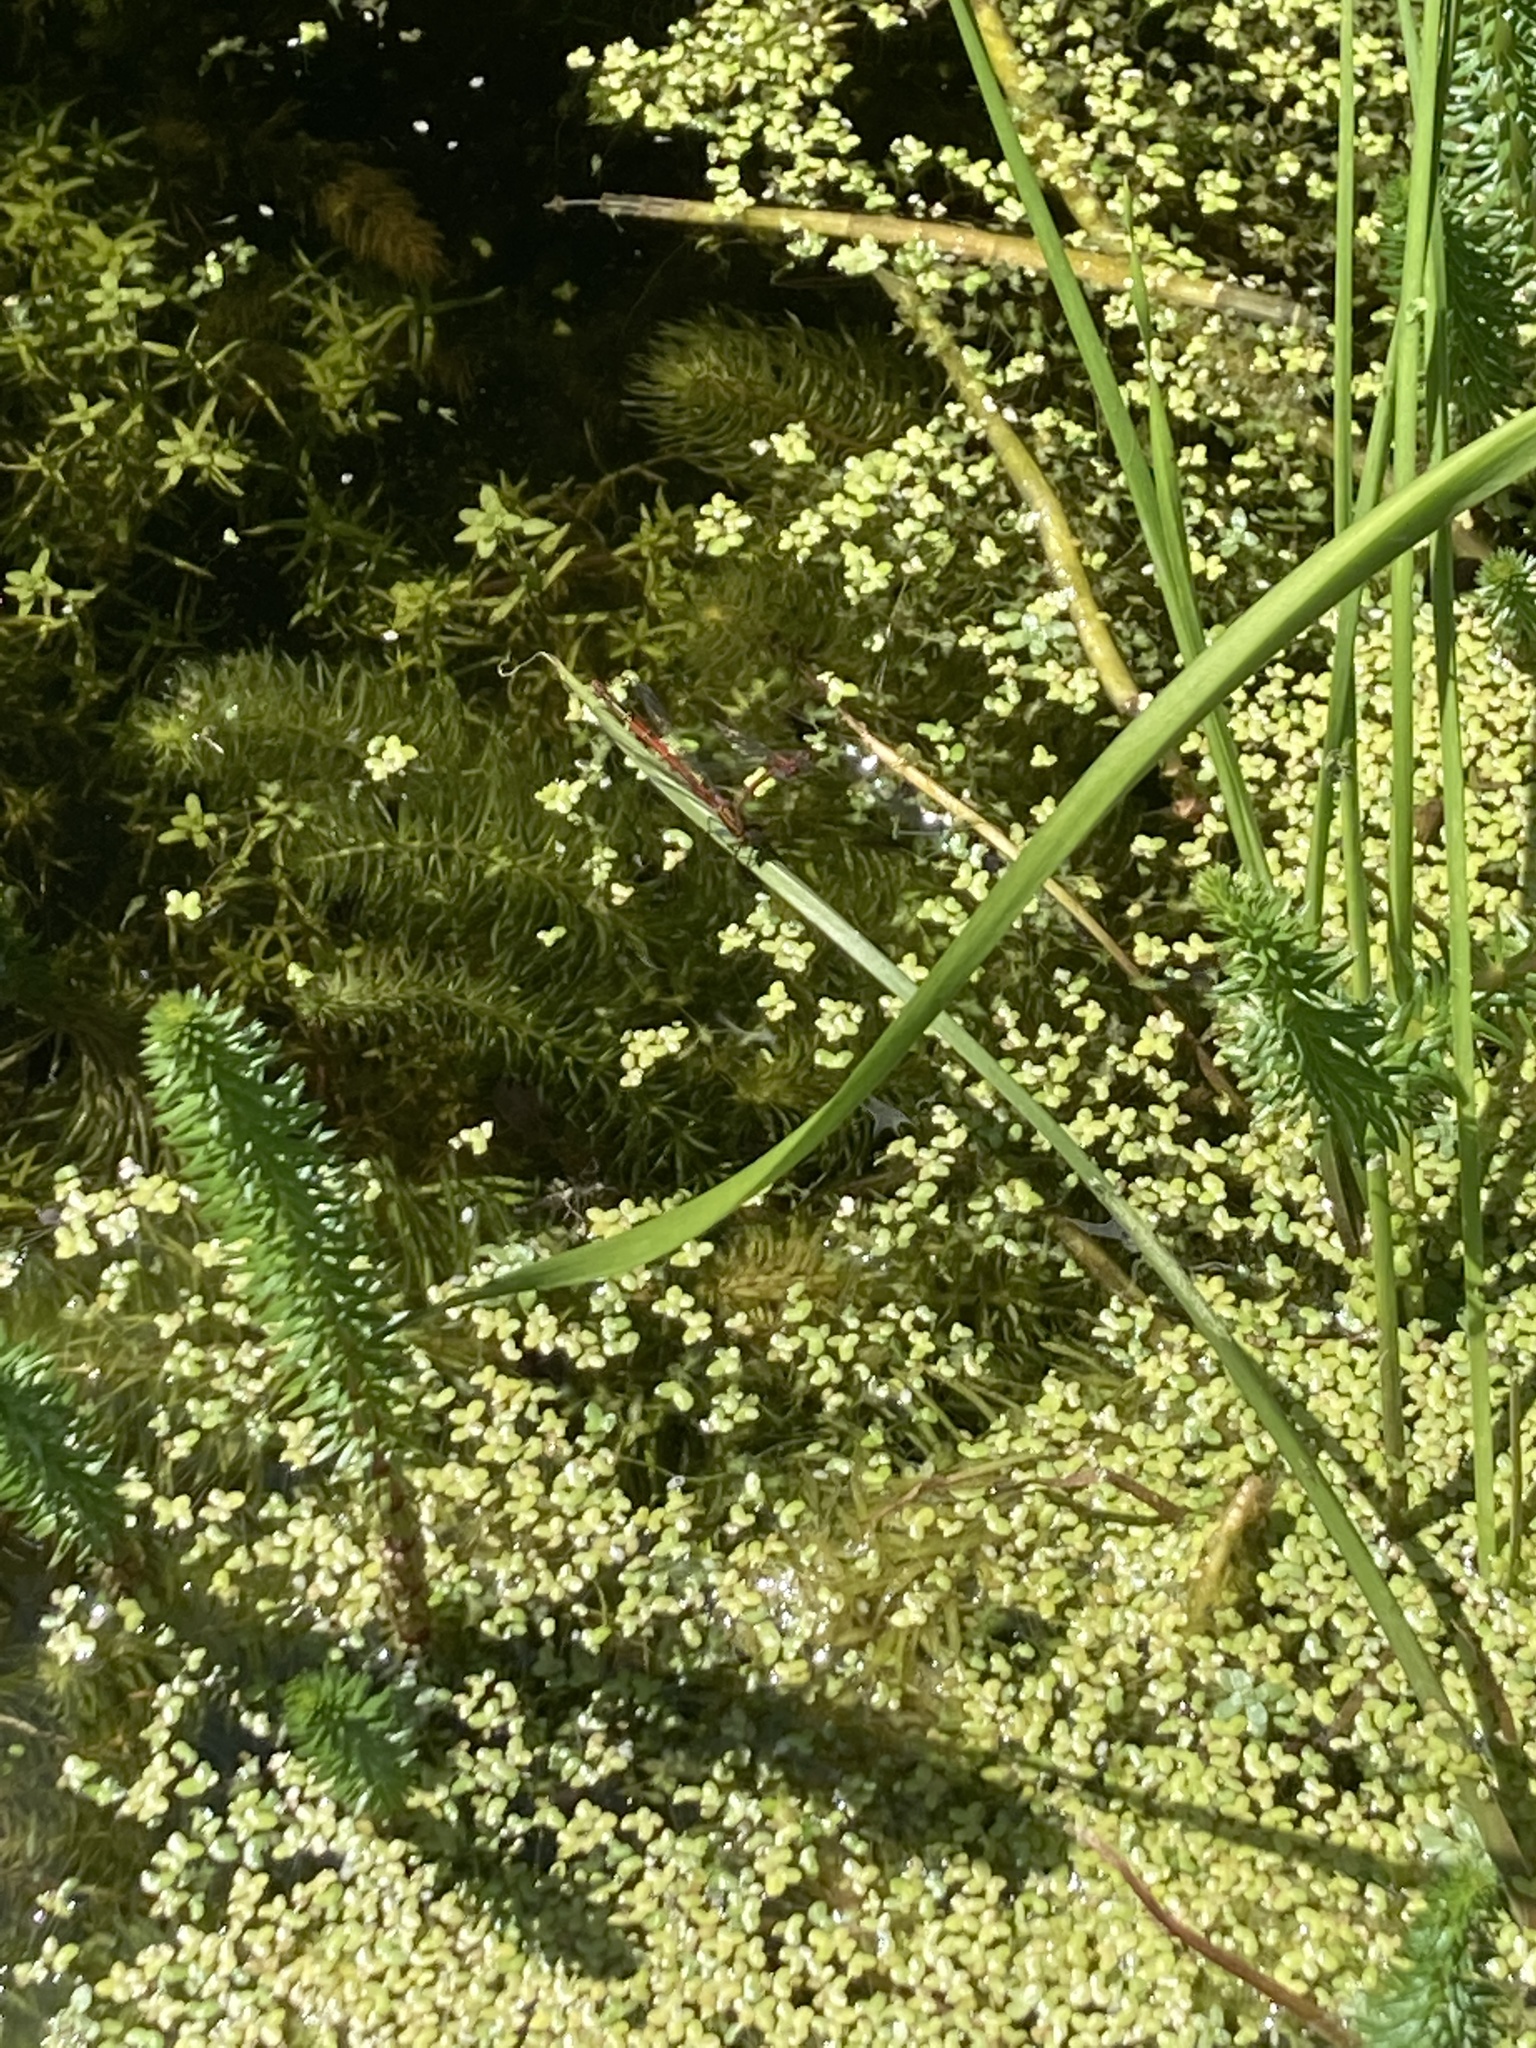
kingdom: Animalia
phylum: Arthropoda
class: Insecta
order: Odonata
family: Coenagrionidae
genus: Pyrrhosoma
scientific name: Pyrrhosoma nymphula
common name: Large red damsel
